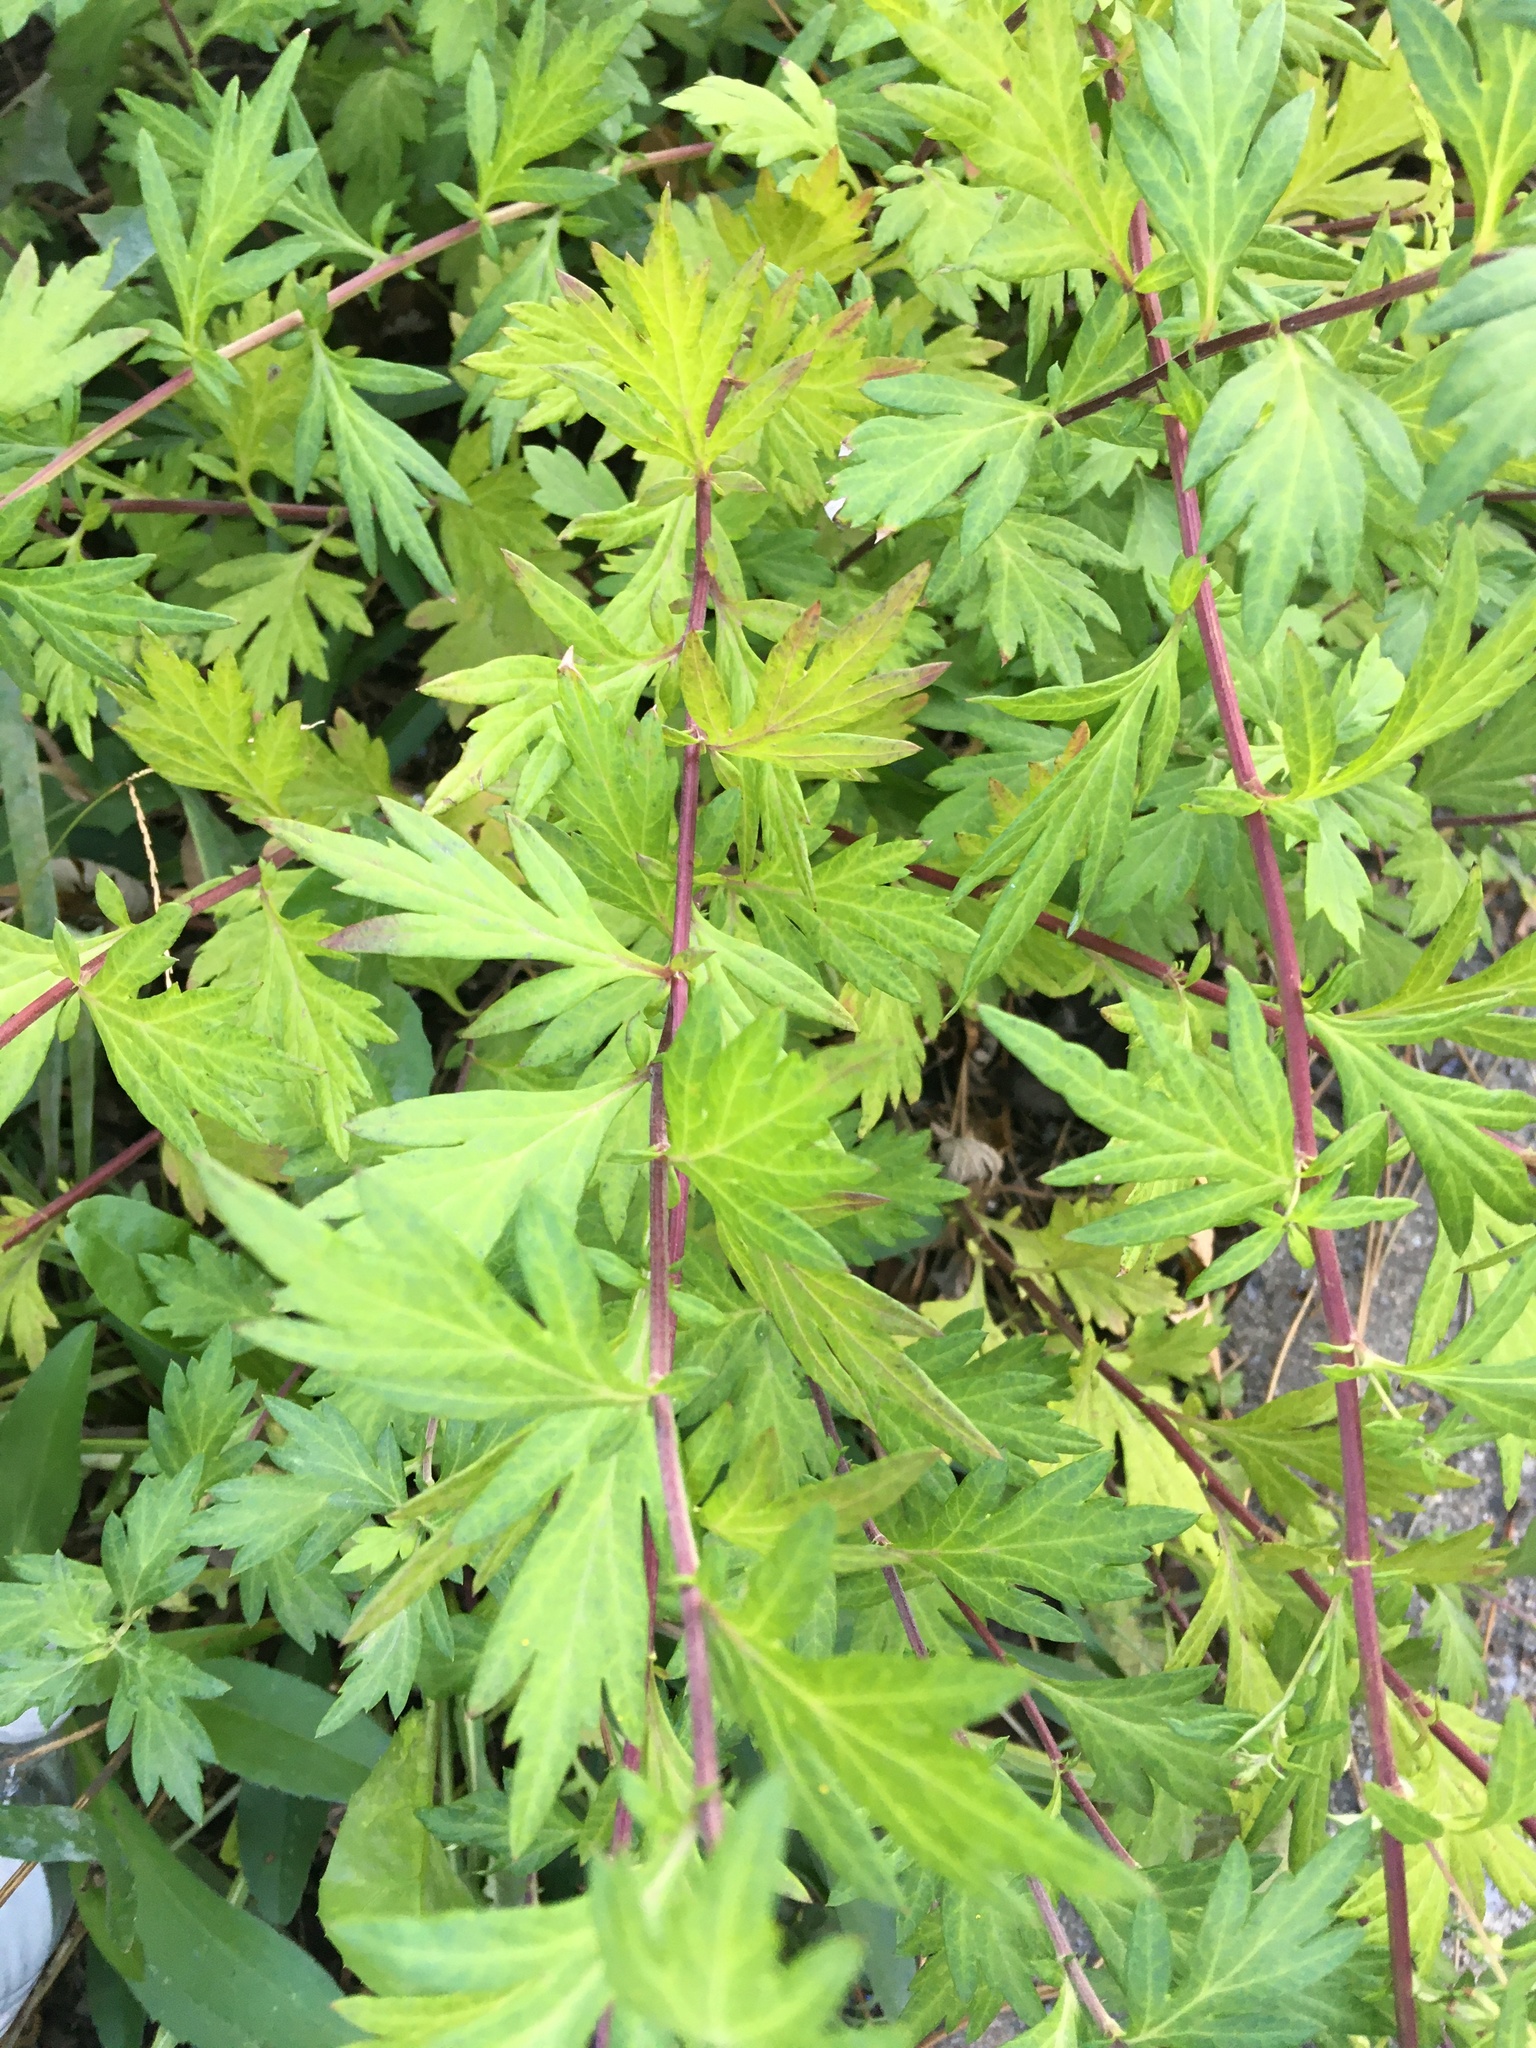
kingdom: Plantae
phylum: Tracheophyta
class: Magnoliopsida
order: Asterales
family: Asteraceae
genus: Artemisia
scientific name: Artemisia vulgaris
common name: Mugwort
